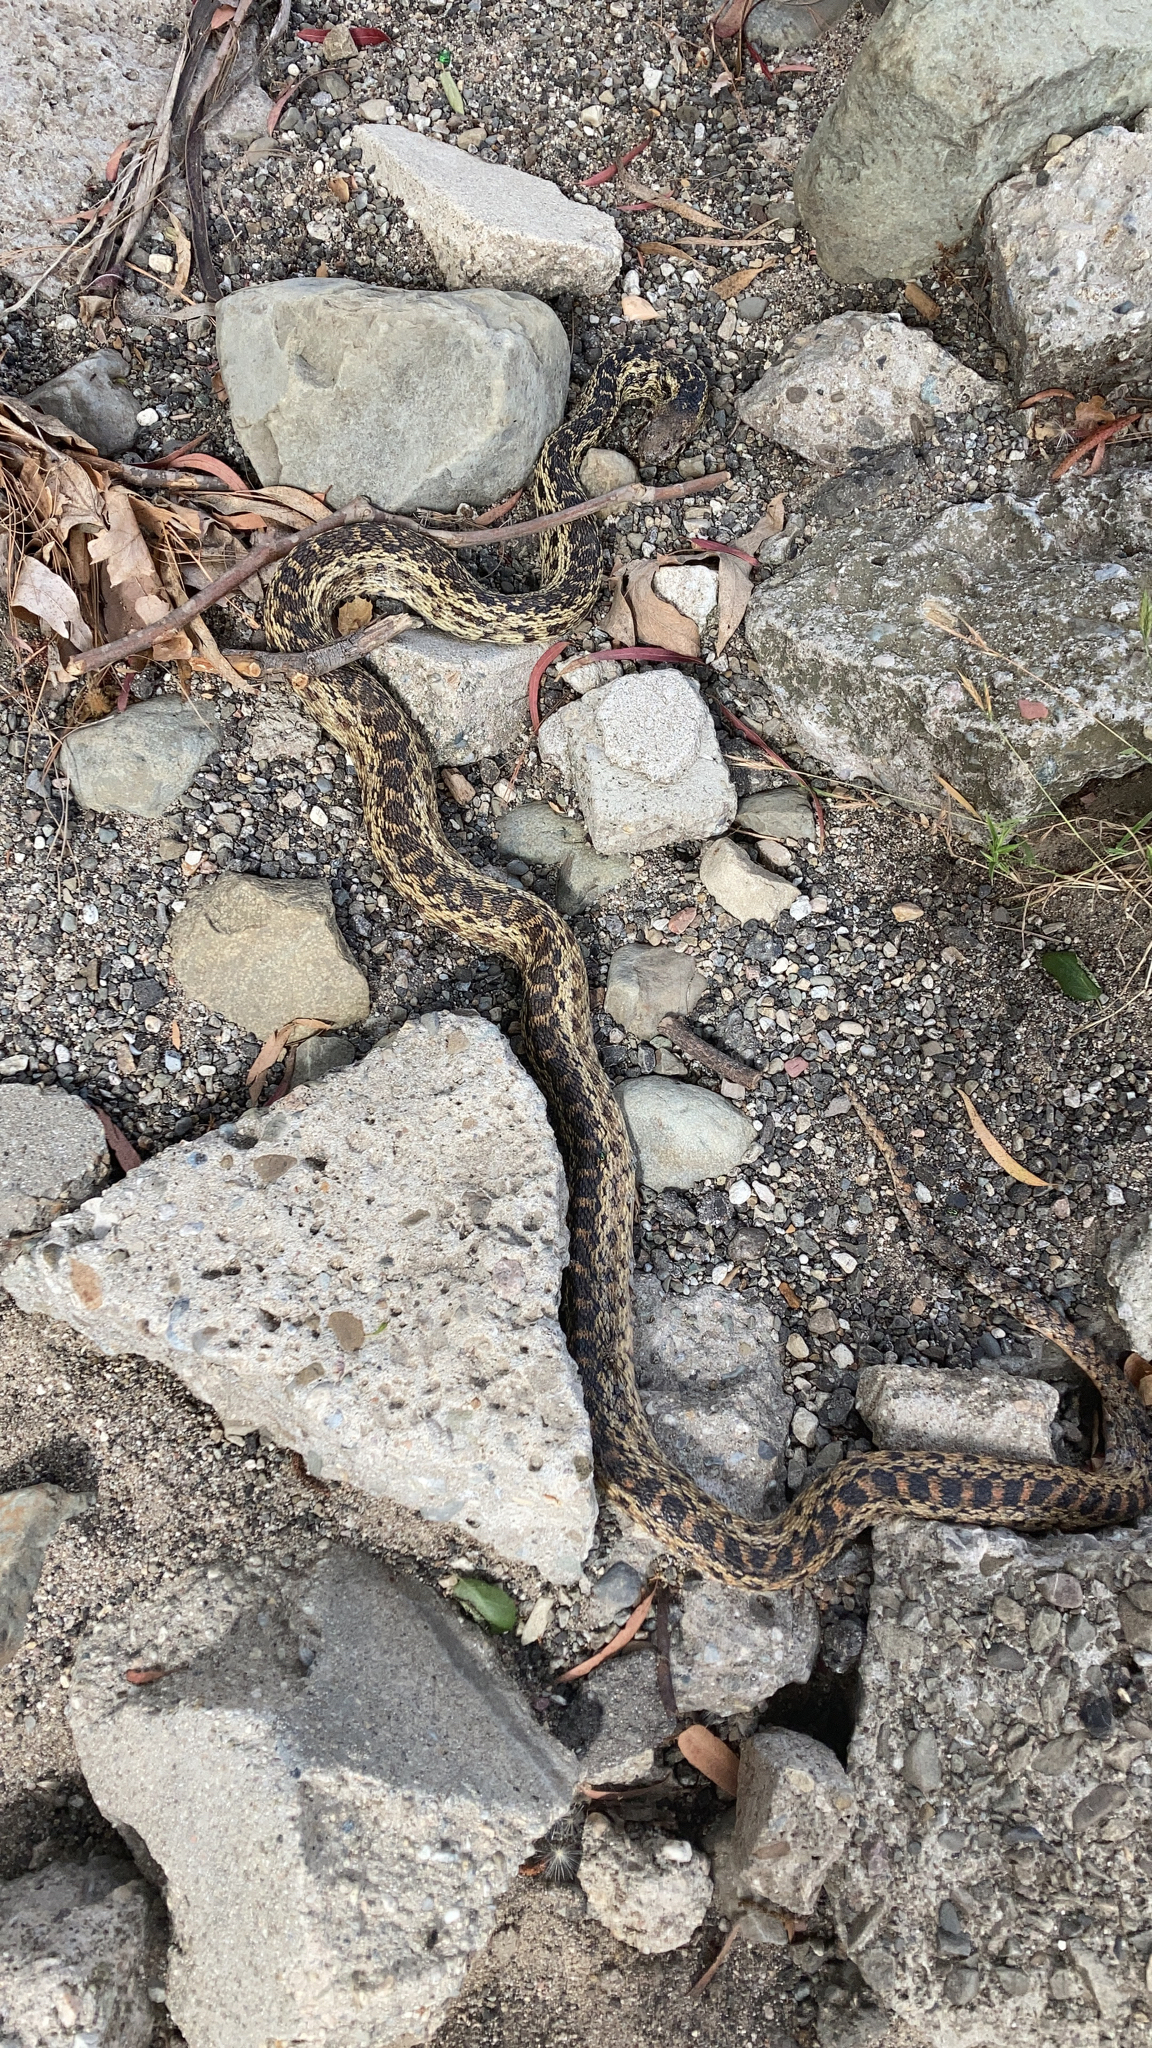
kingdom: Animalia
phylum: Chordata
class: Squamata
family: Colubridae
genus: Pituophis
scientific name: Pituophis catenifer
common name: Gopher snake
